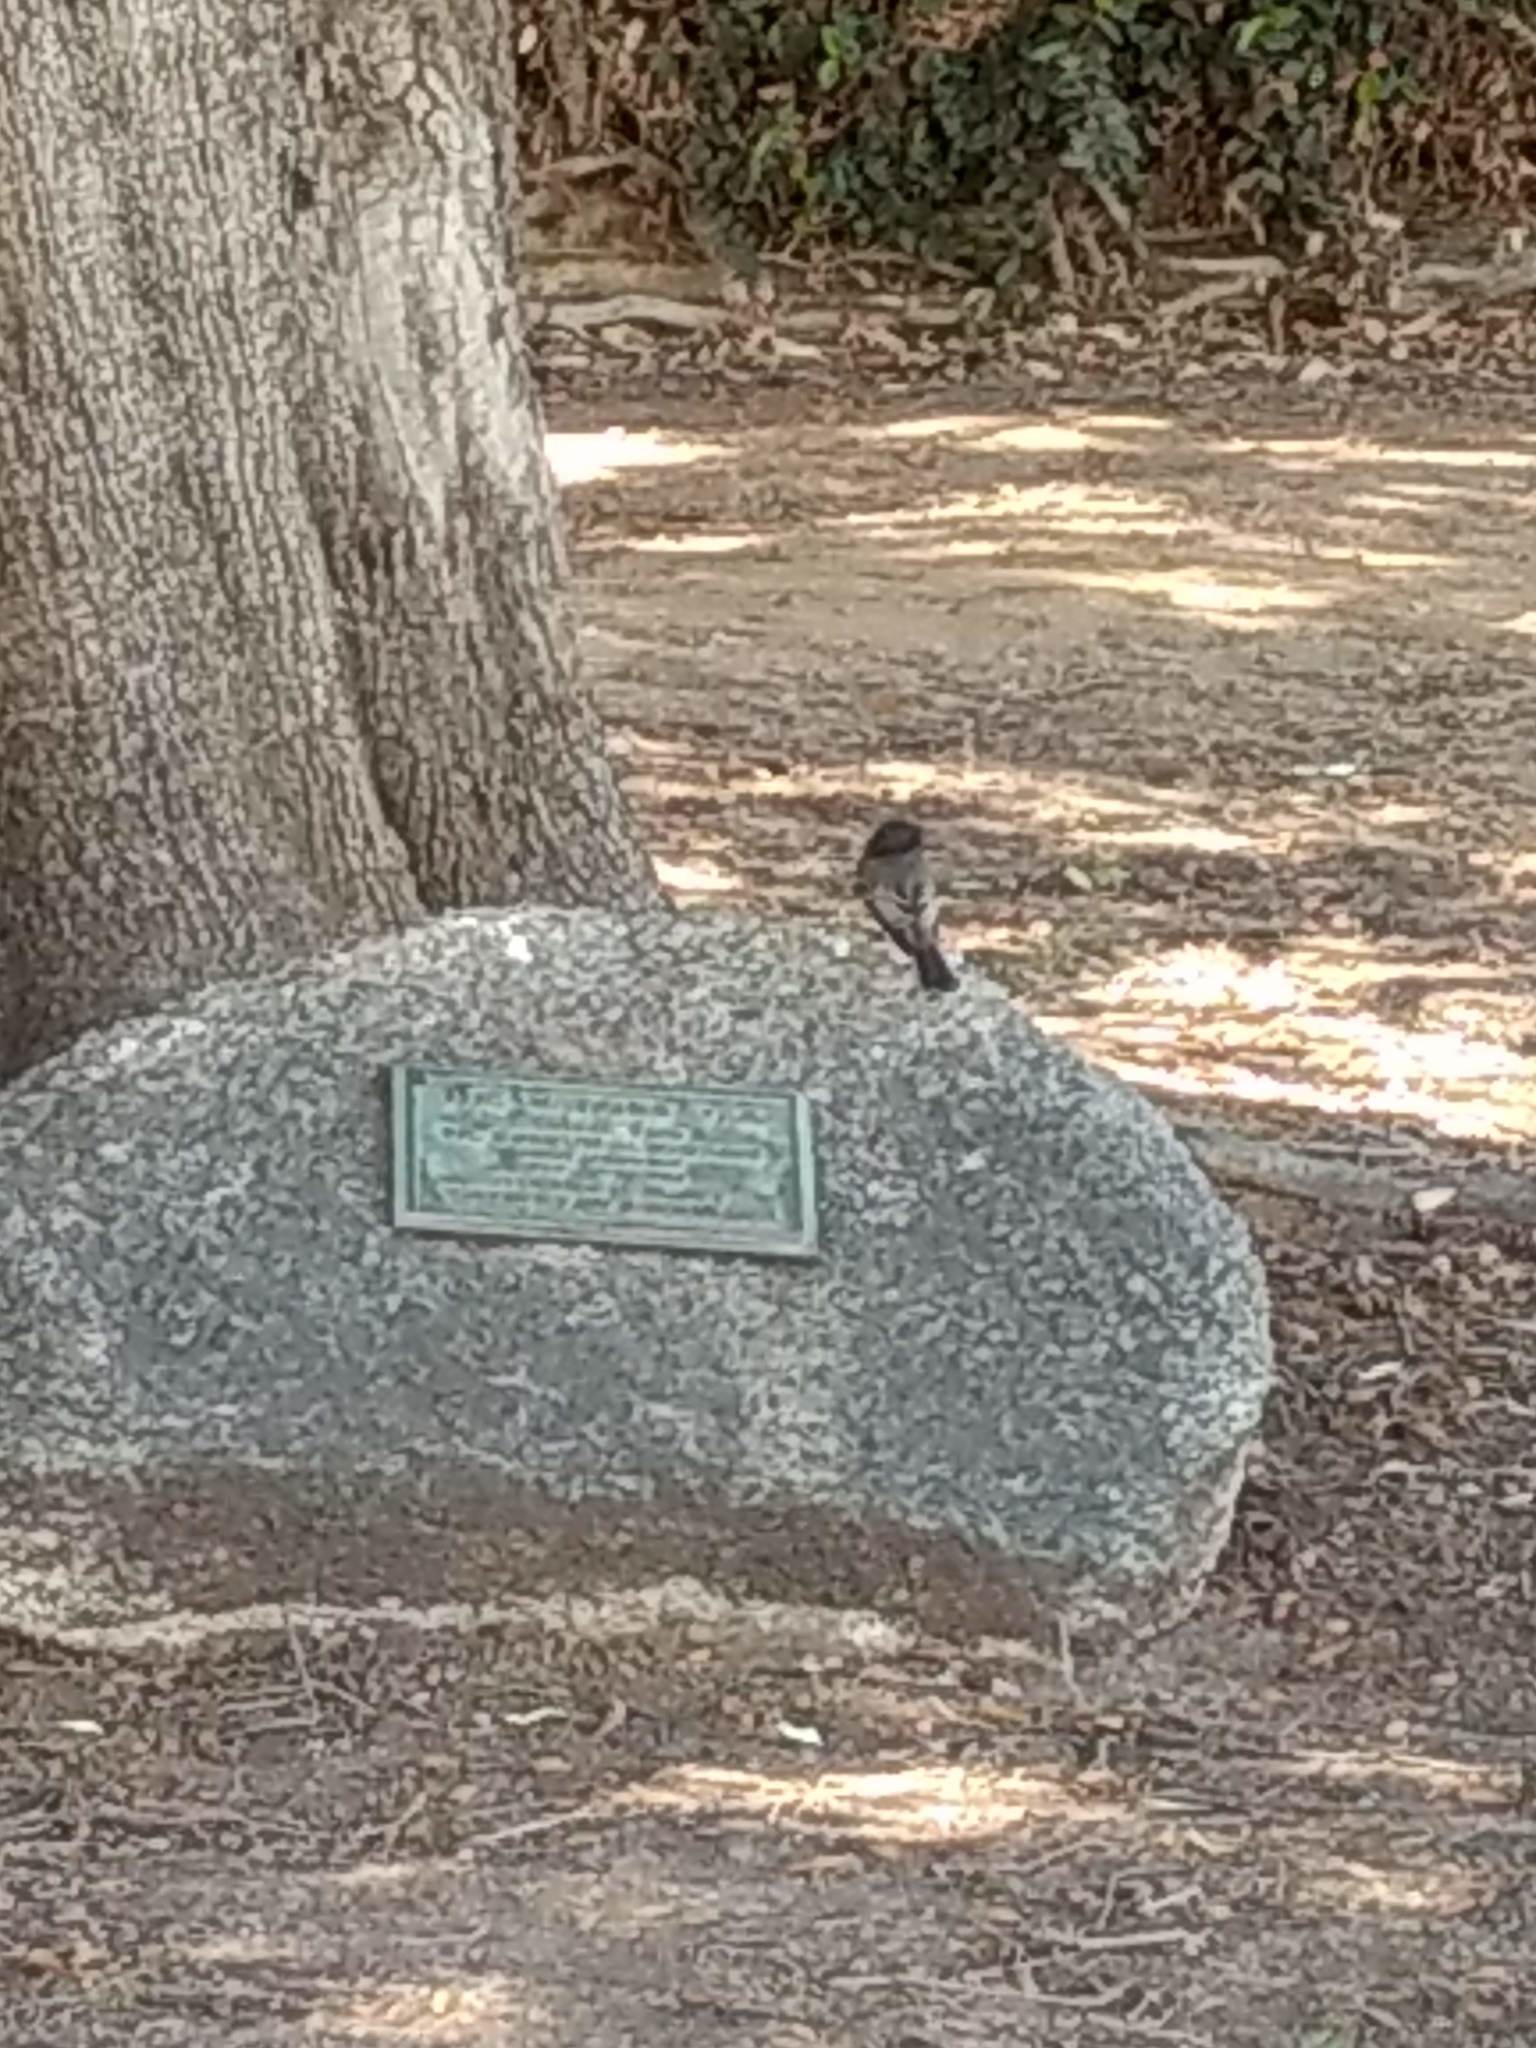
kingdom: Animalia
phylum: Chordata
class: Aves
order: Passeriformes
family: Tyrannidae
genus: Sayornis
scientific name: Sayornis nigricans
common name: Black phoebe
